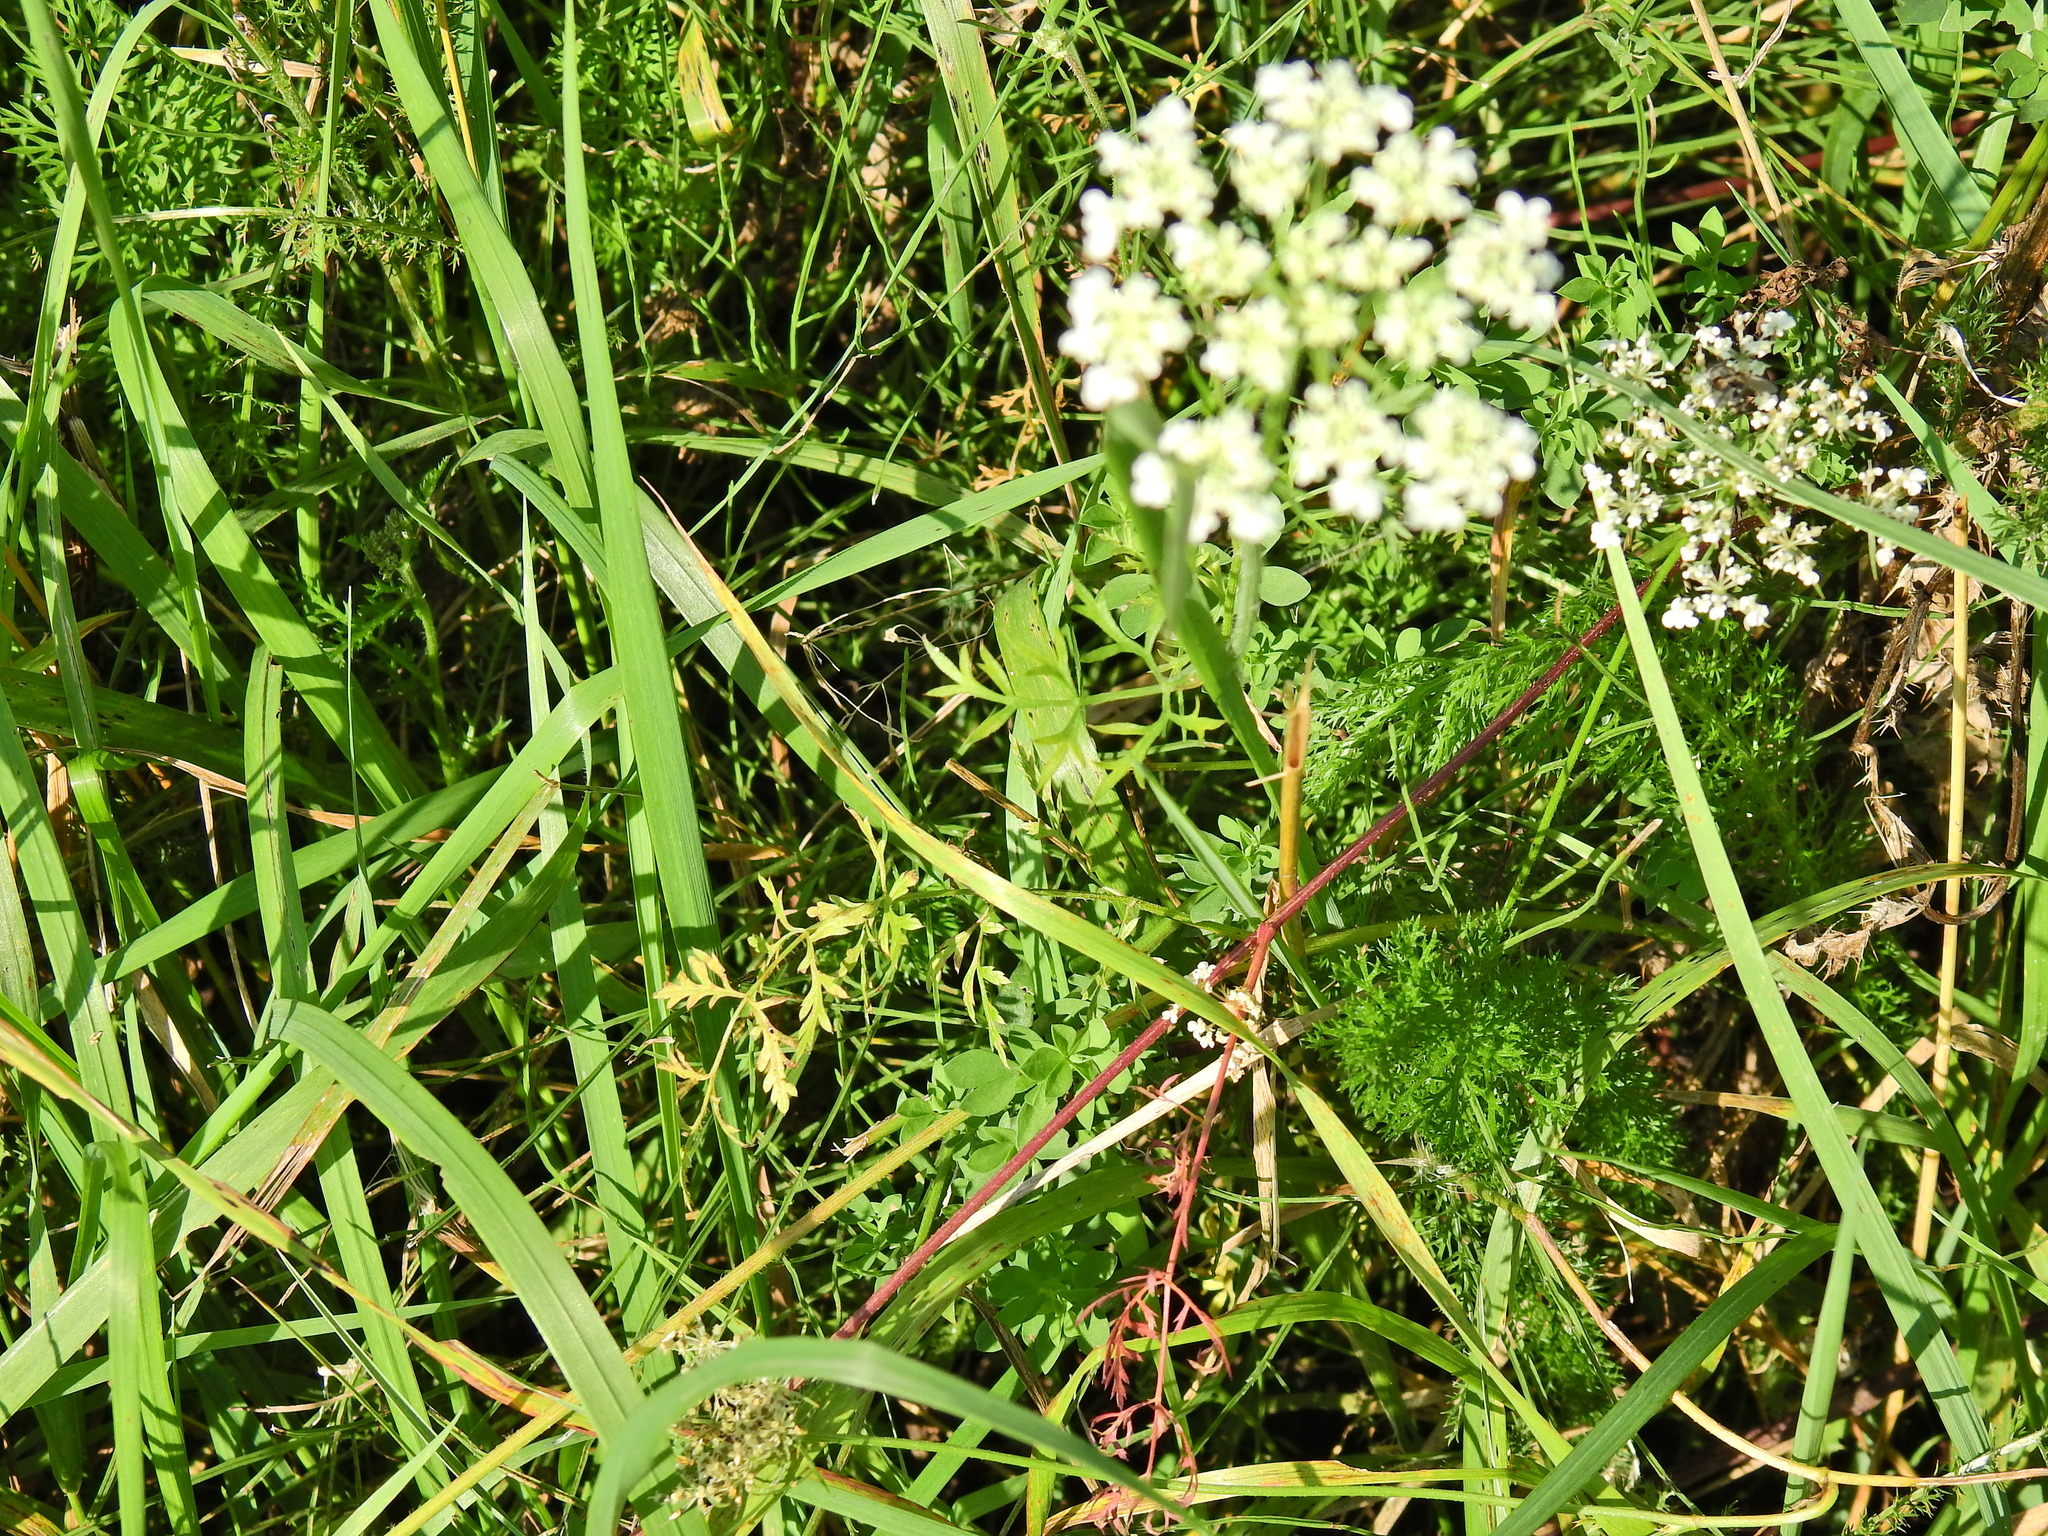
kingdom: Plantae
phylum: Tracheophyta
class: Magnoliopsida
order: Apiales
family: Apiaceae
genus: Conopodium
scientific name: Conopodium majus
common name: Pignut
